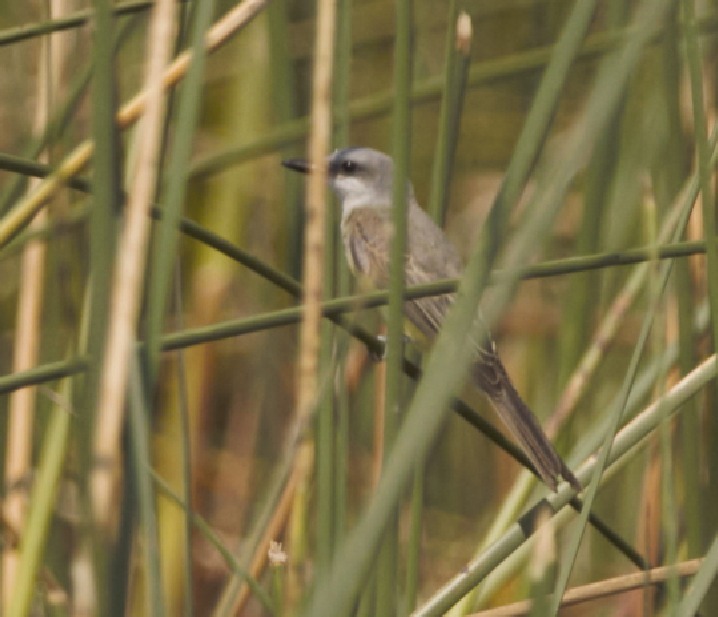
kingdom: Animalia
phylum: Chordata
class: Aves
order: Passeriformes
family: Tyrannidae
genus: Tyrannus
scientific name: Tyrannus melancholicus
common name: Tropical kingbird
